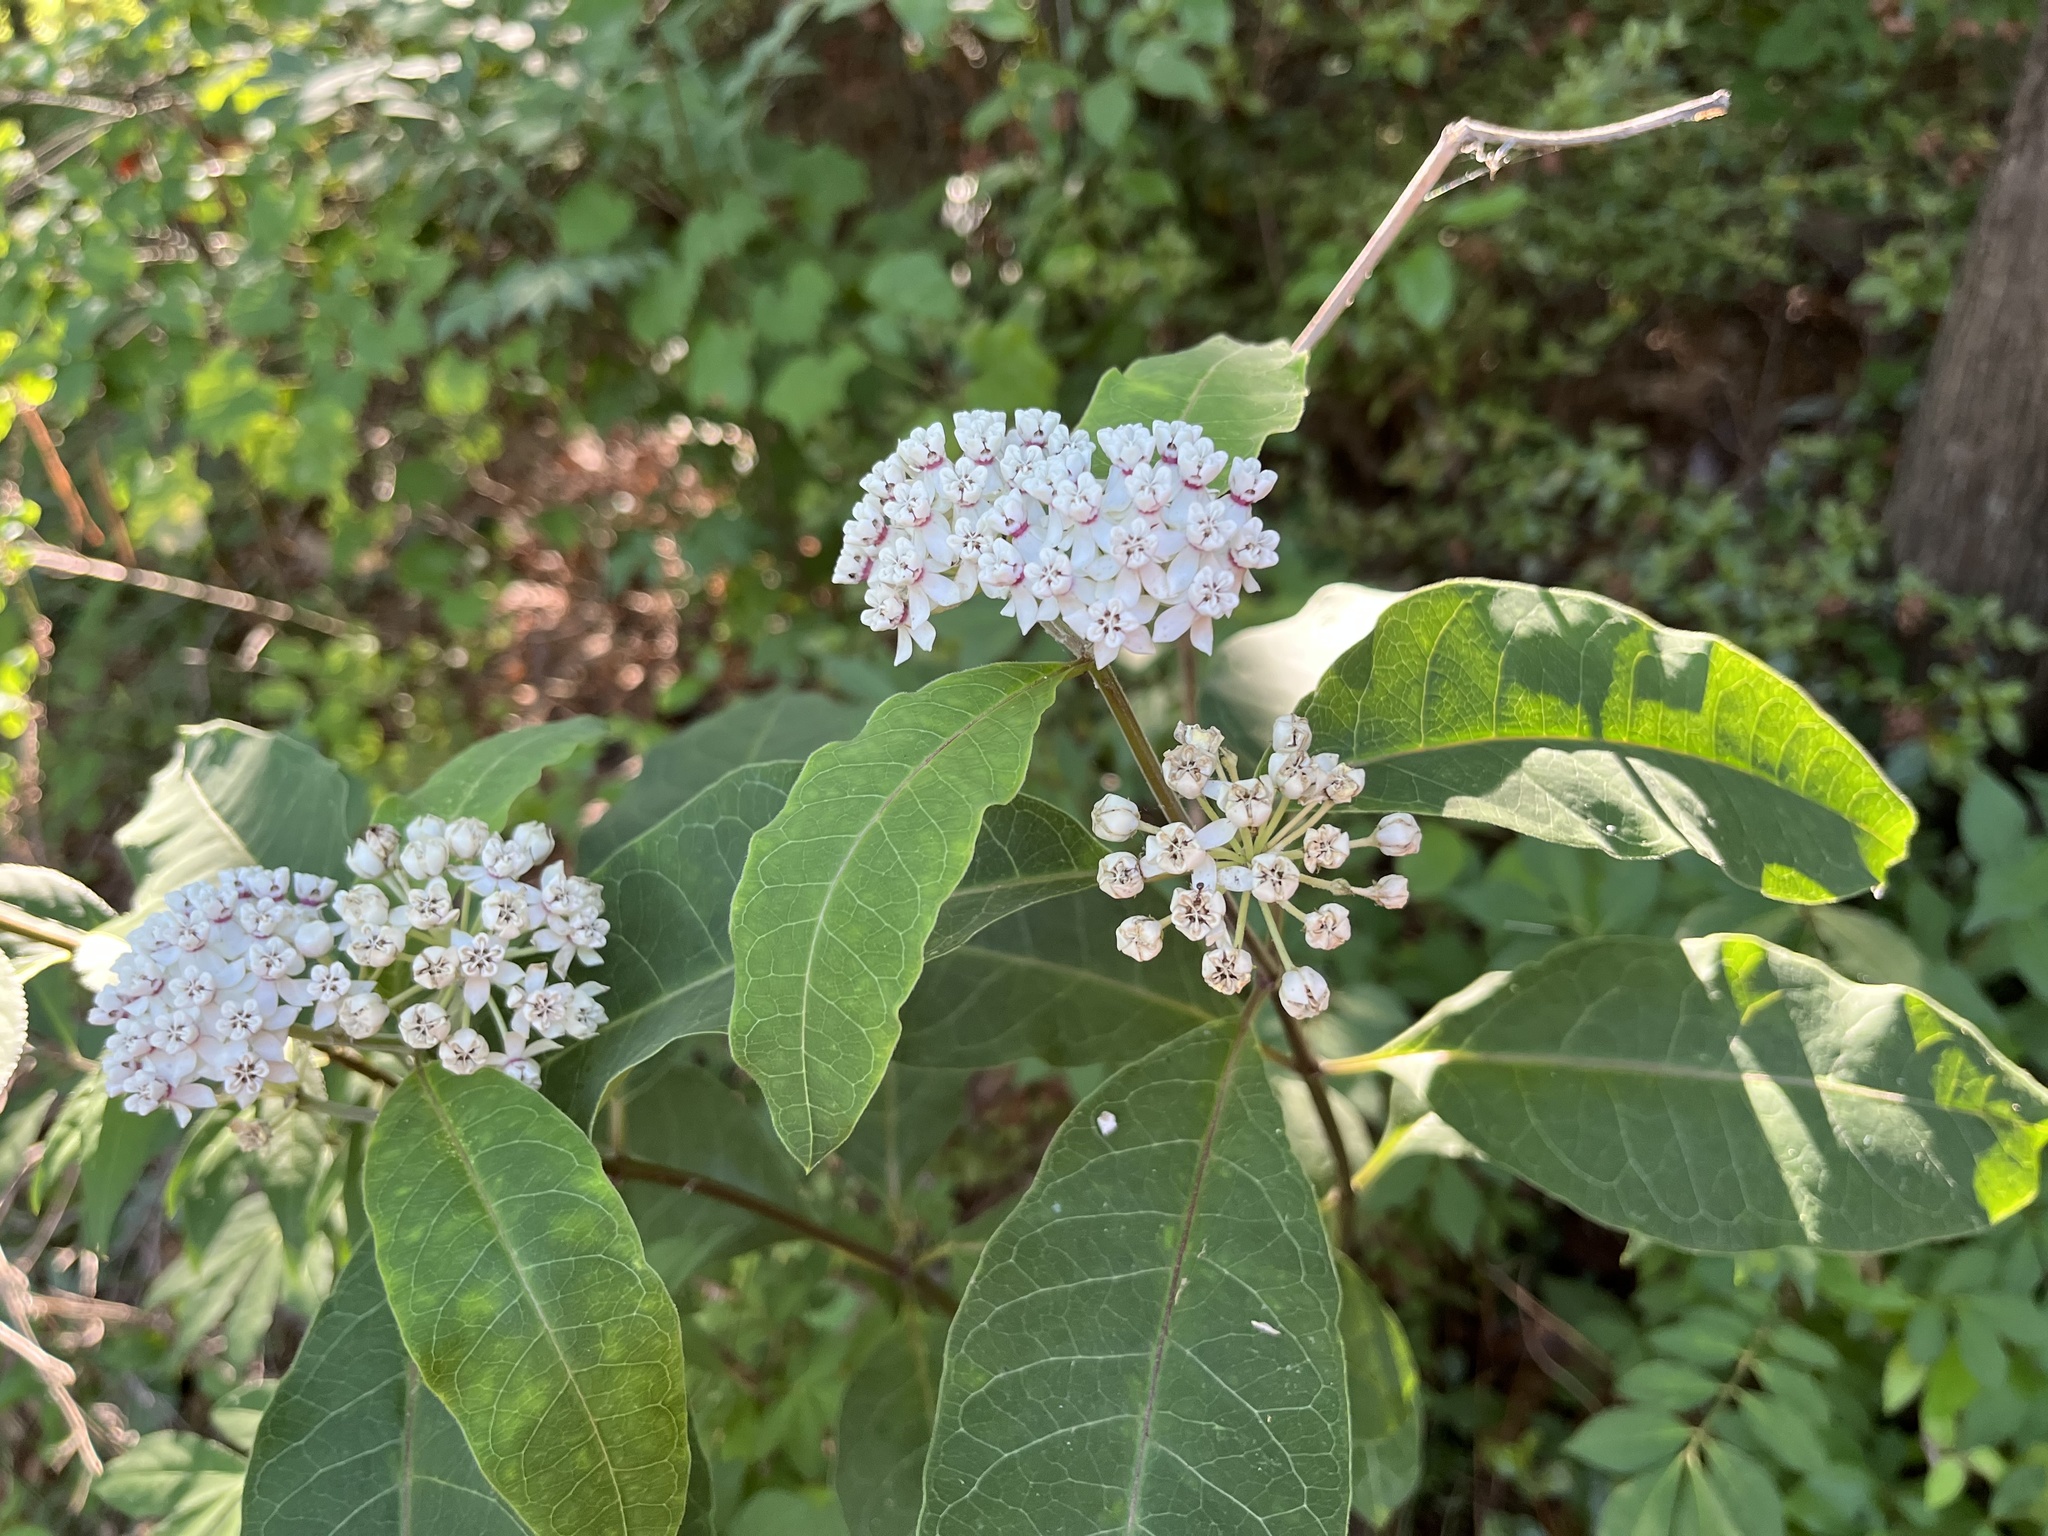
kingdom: Plantae
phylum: Tracheophyta
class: Magnoliopsida
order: Gentianales
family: Apocynaceae
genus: Asclepias
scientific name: Asclepias variegata
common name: Variegated milkweed
